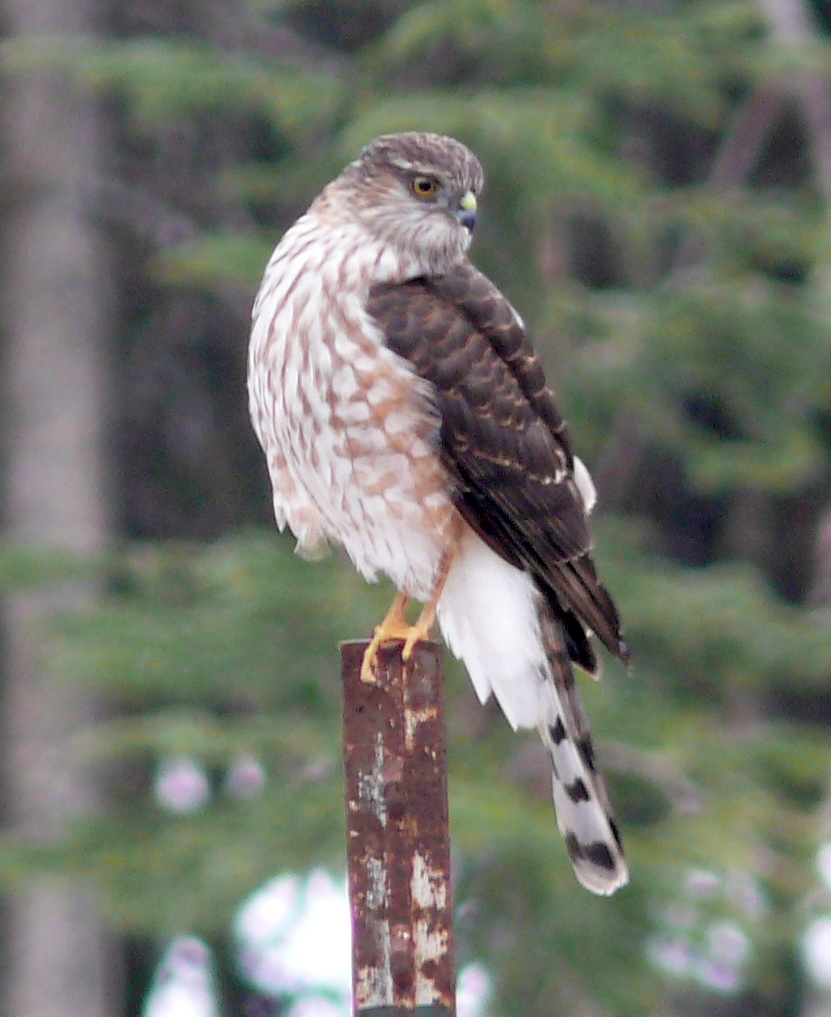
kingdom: Animalia
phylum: Chordata
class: Aves
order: Accipitriformes
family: Accipitridae
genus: Accipiter
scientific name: Accipiter striatus
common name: Sharp-shinned hawk
